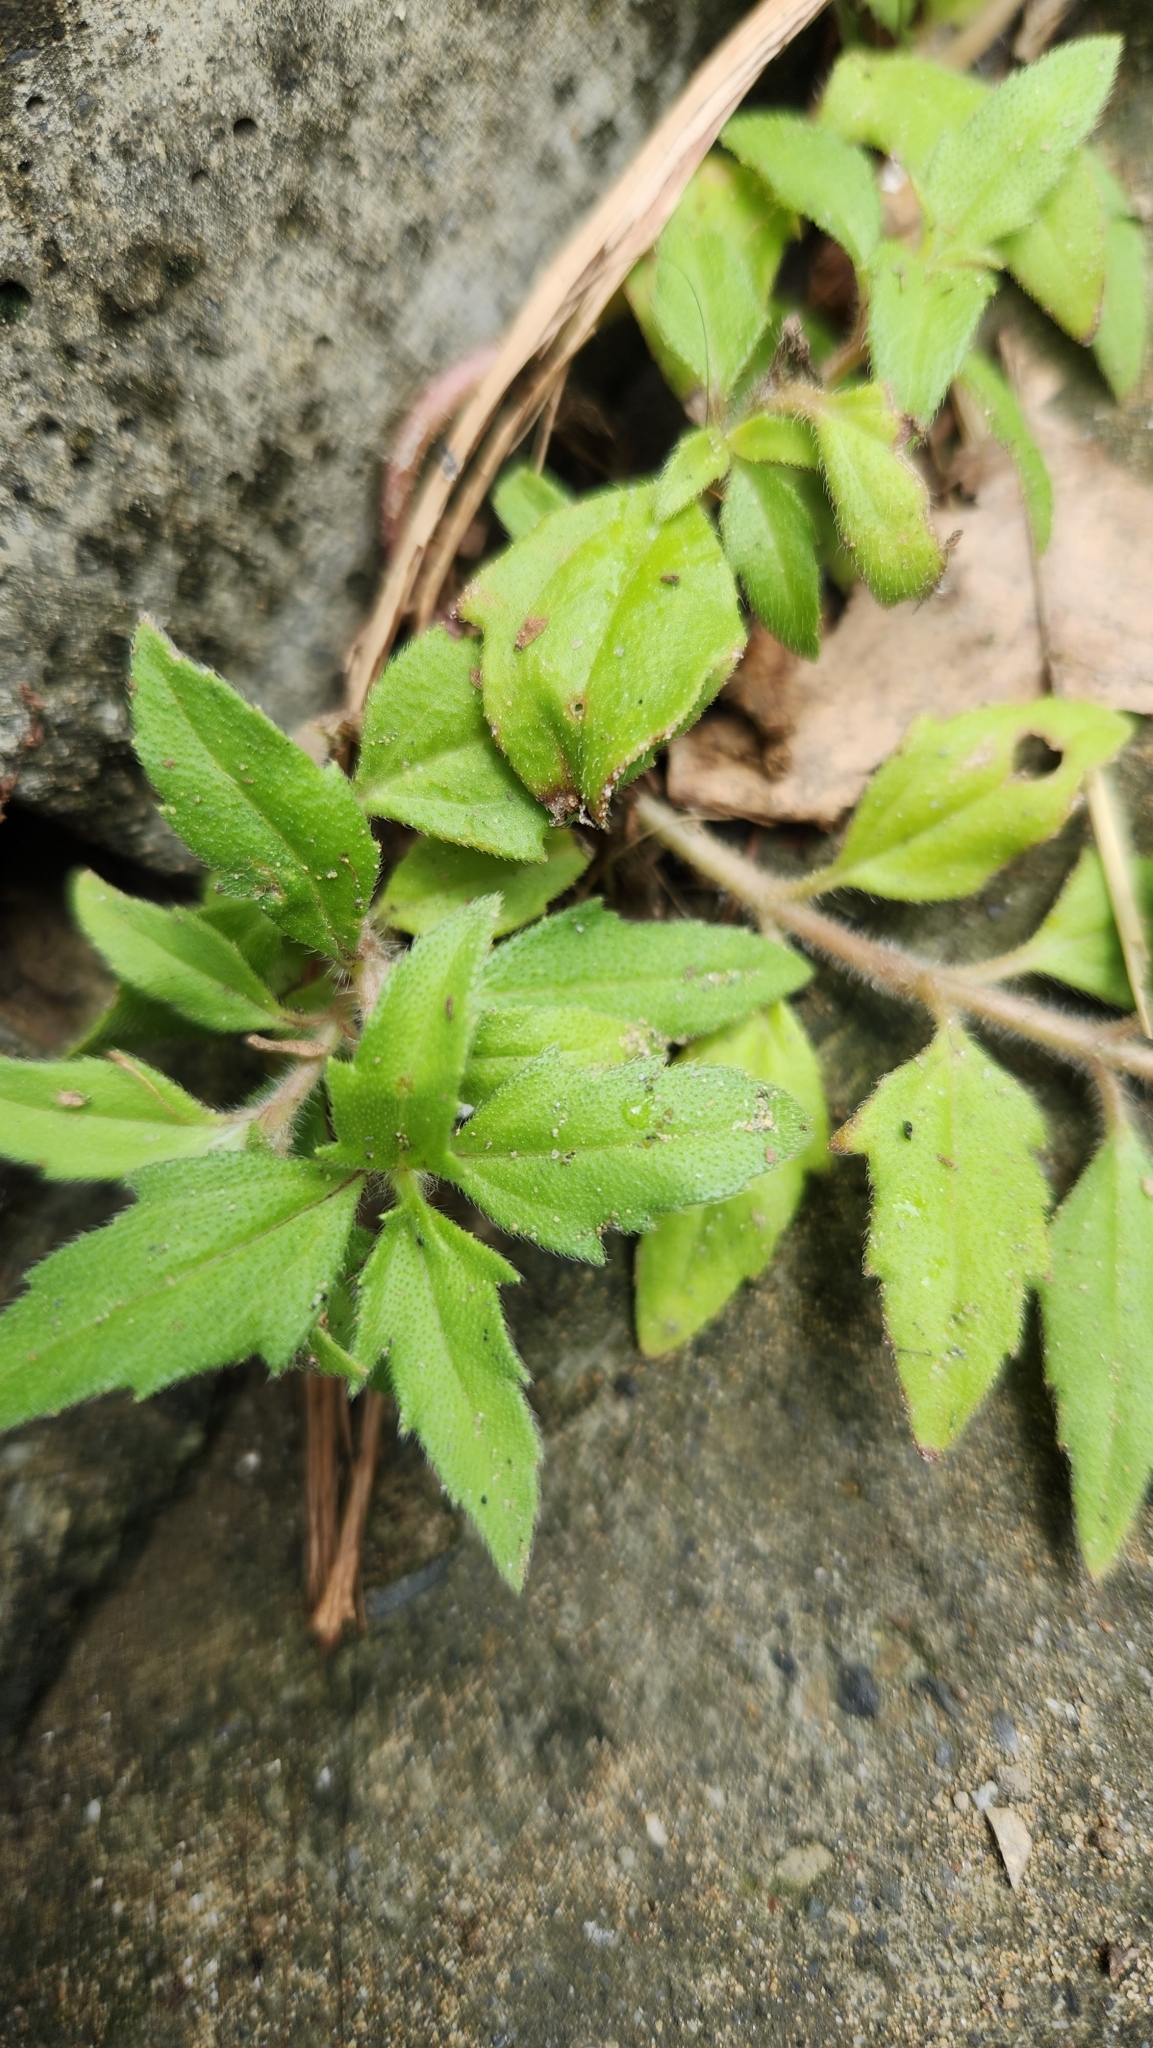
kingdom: Plantae
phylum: Tracheophyta
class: Magnoliopsida
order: Asterales
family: Asteraceae
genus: Tridax
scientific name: Tridax procumbens
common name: Coatbuttons
